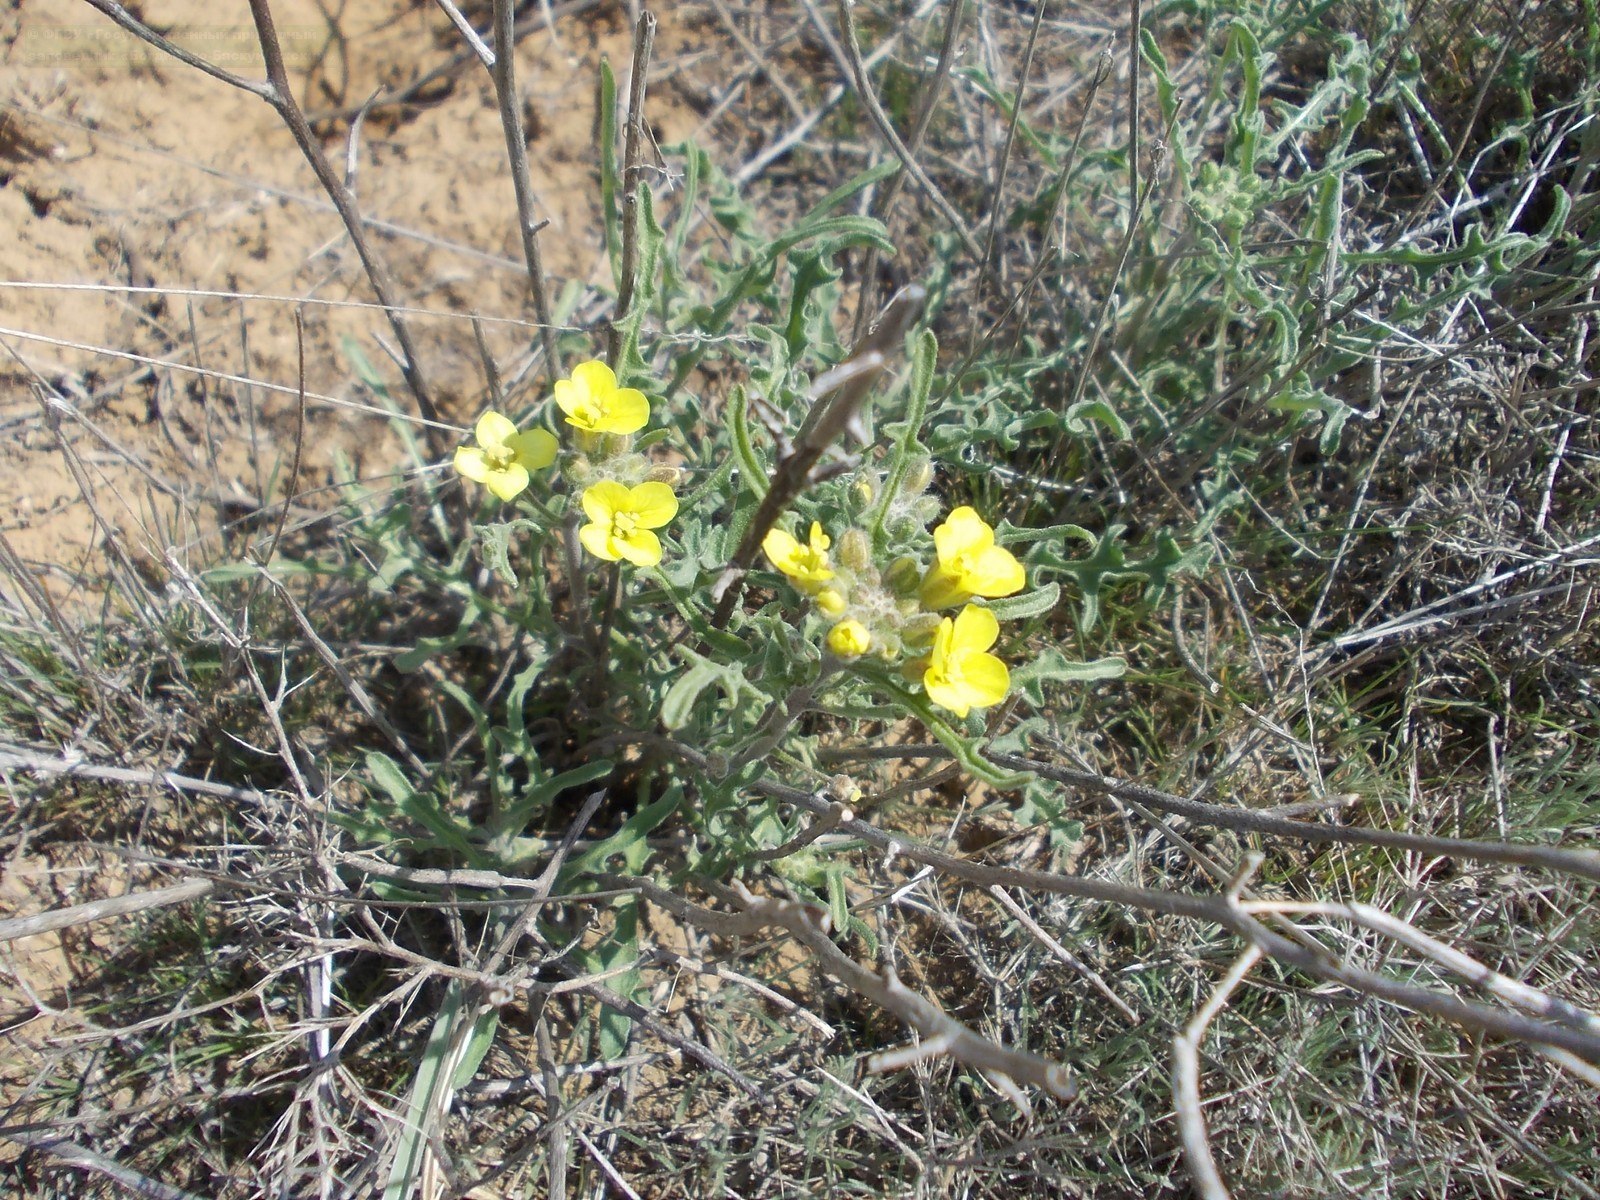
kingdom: Plantae
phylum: Tracheophyta
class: Magnoliopsida
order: Brassicales
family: Brassicaceae
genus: Sterigmostemum
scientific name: Sterigmostemum caspicum
